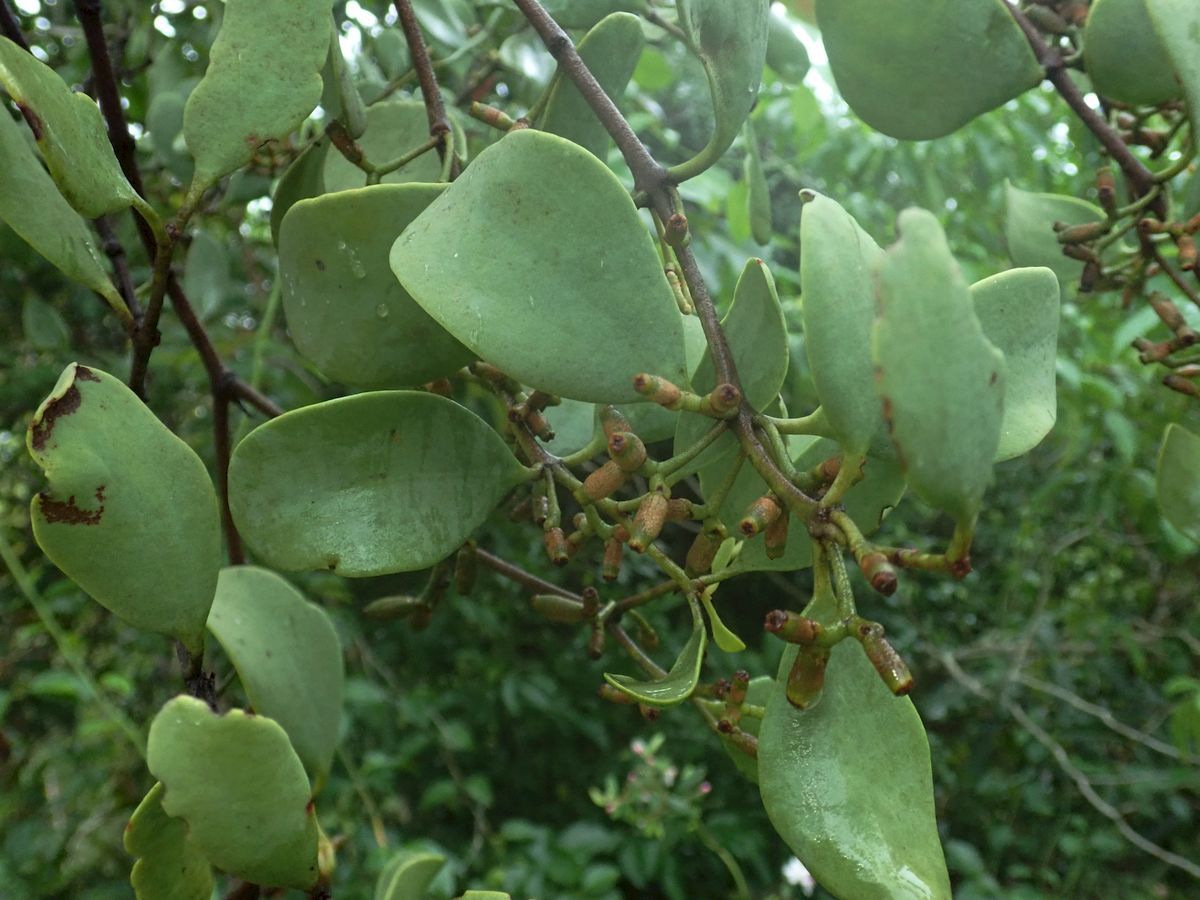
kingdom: Plantae
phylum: Tracheophyta
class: Magnoliopsida
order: Santalales
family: Loranthaceae
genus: Amyema
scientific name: Amyema villiflora
